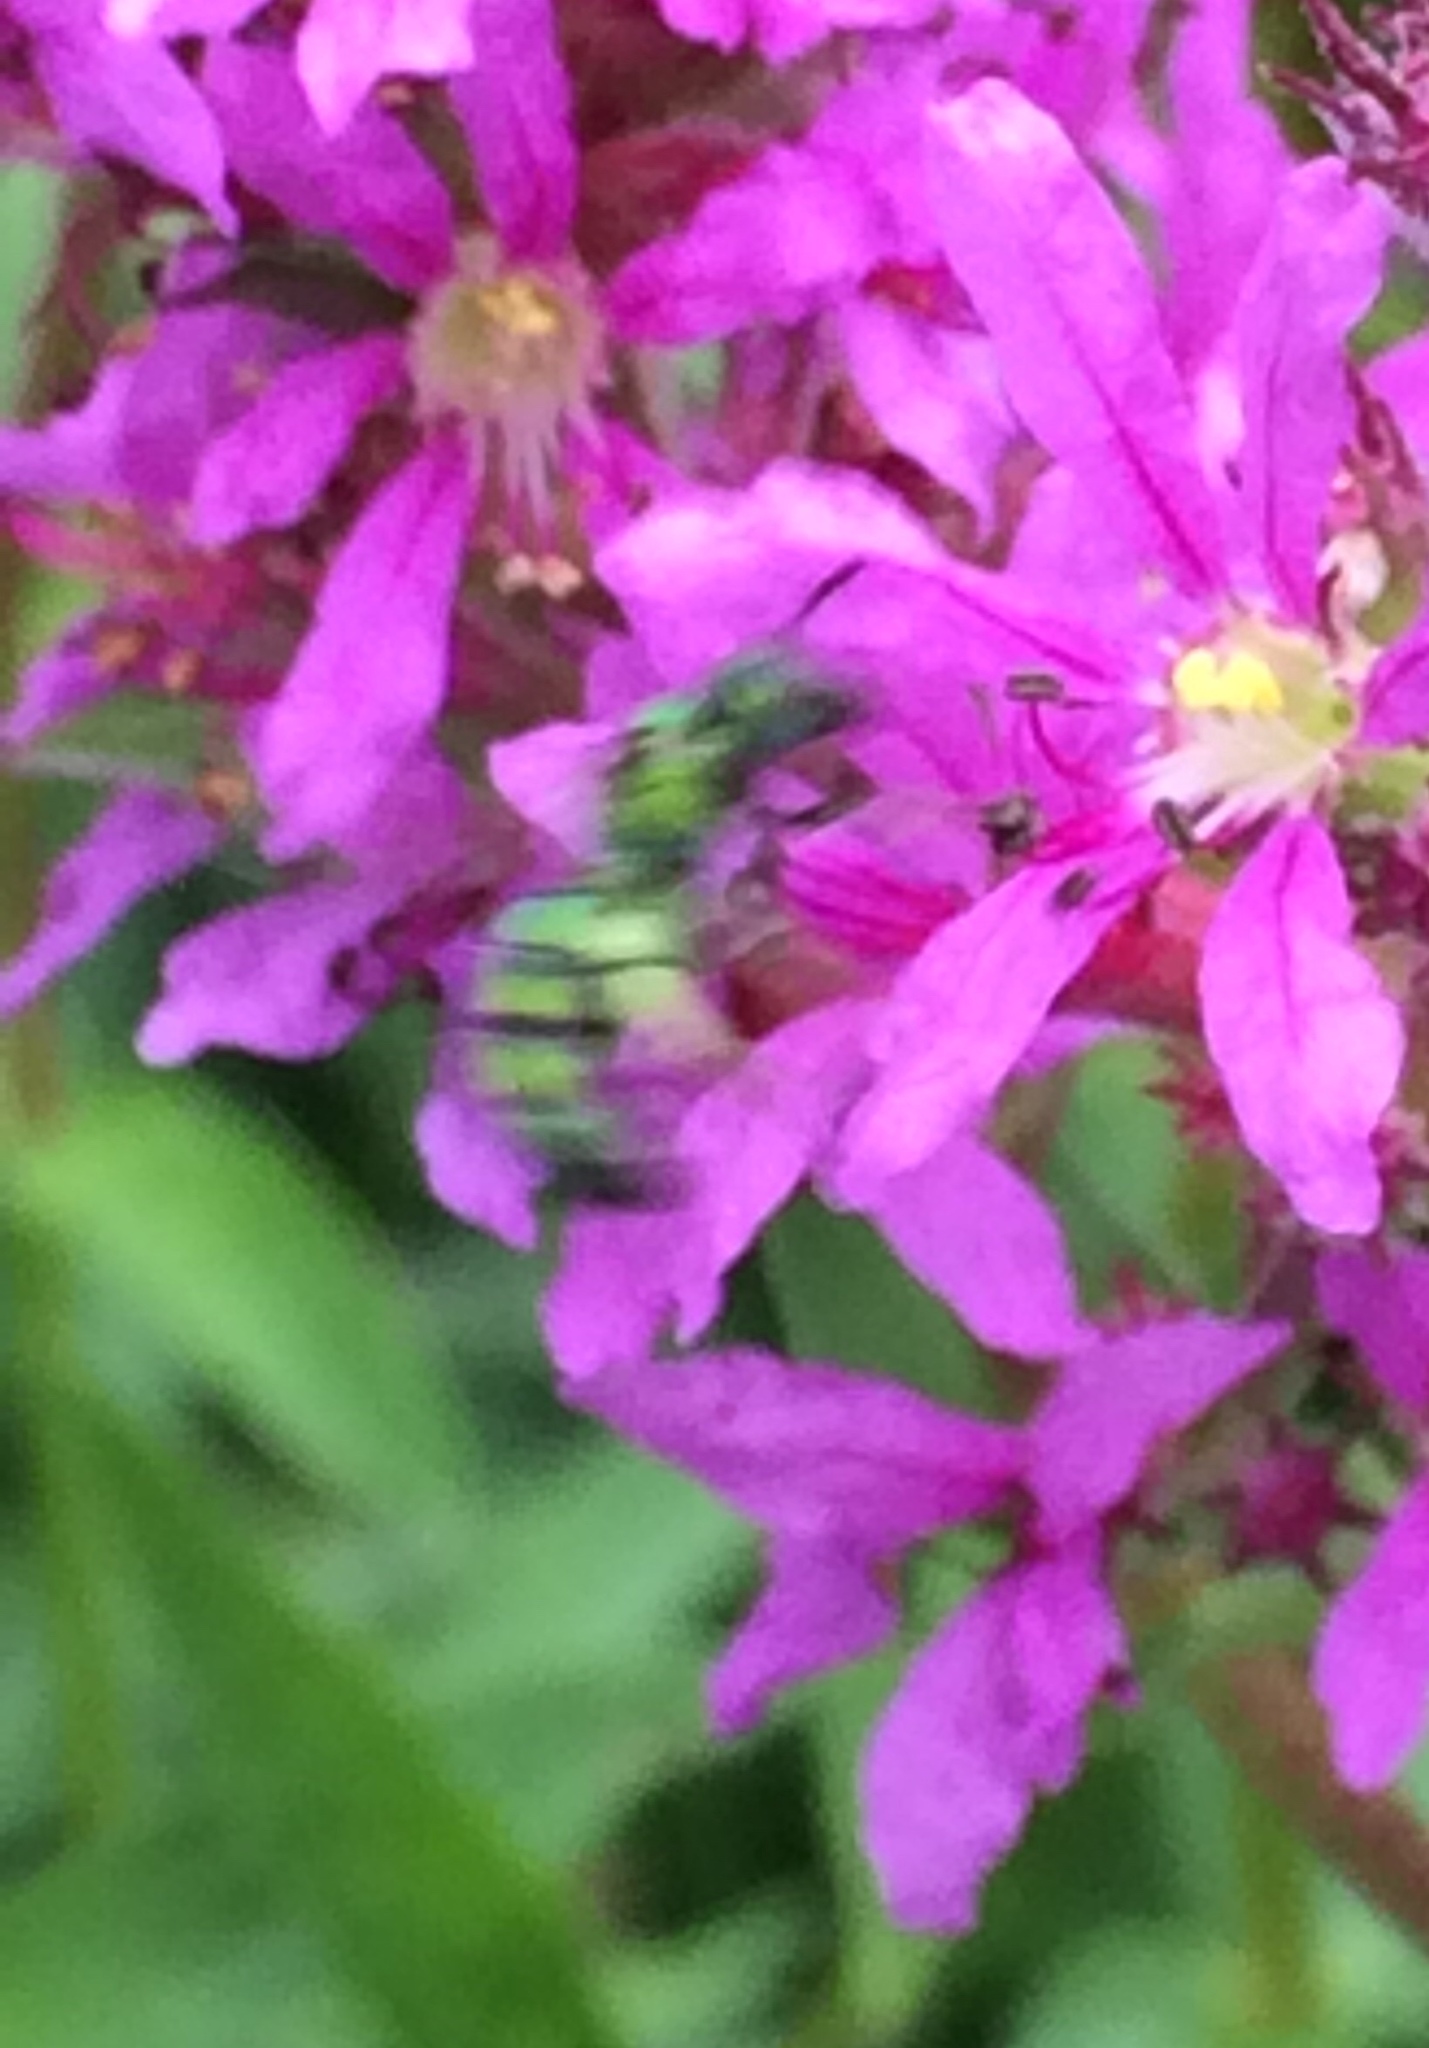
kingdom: Animalia
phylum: Arthropoda
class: Insecta
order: Hymenoptera
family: Halictidae
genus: Augochlora
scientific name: Augochlora pura
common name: Pure green sweat bee
